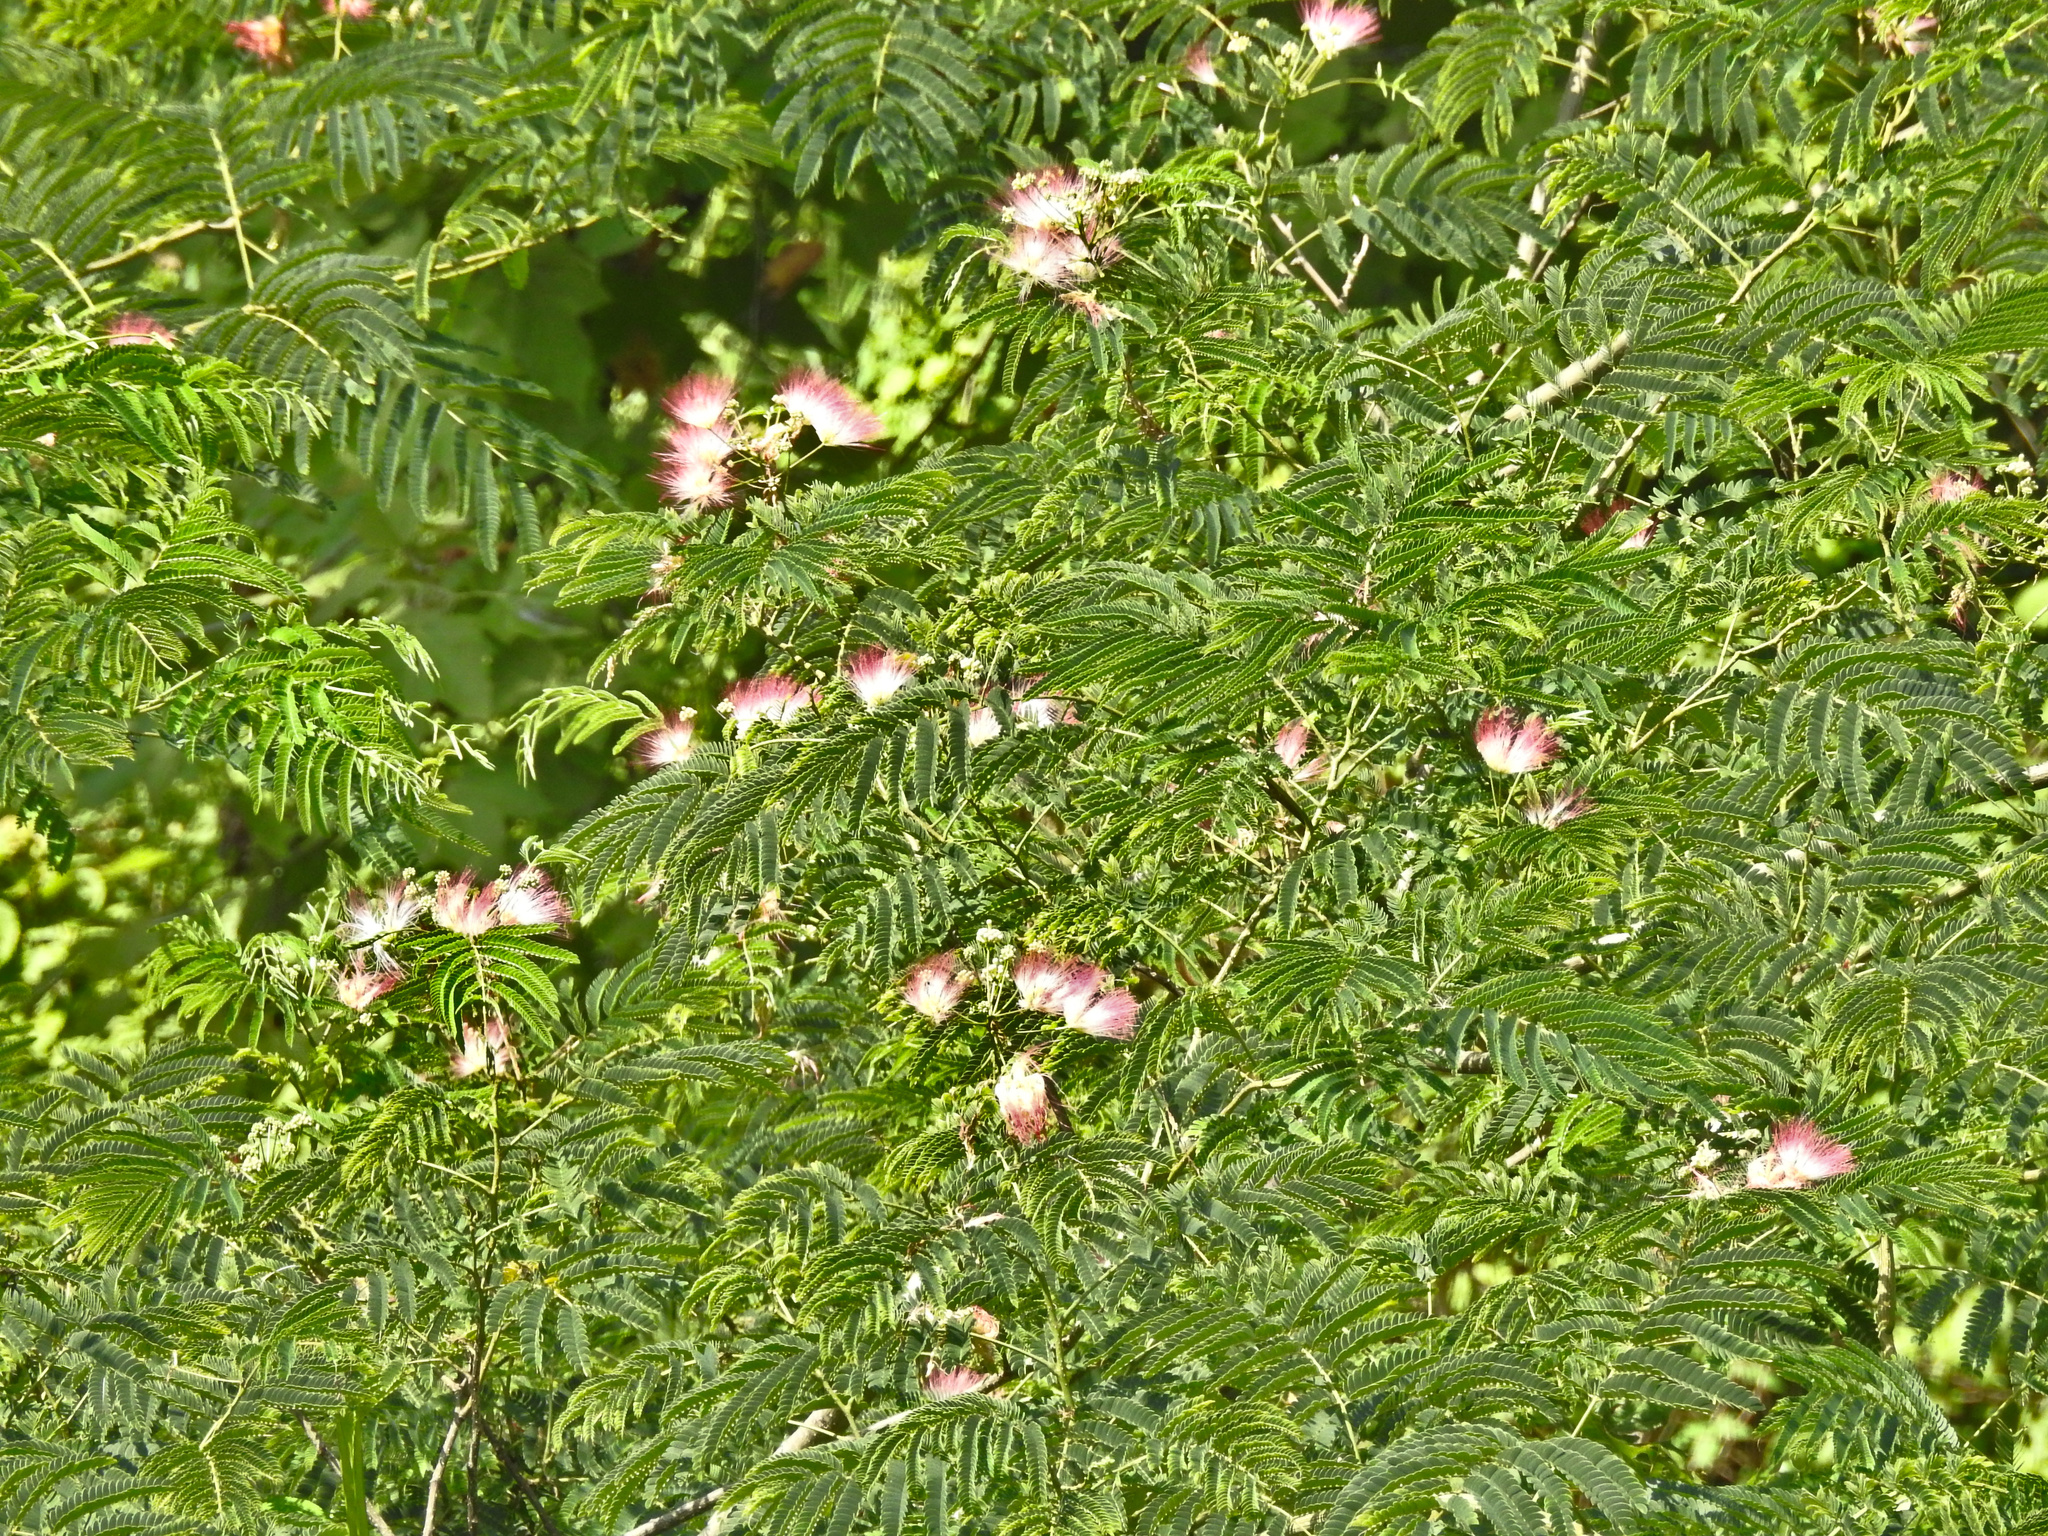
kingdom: Plantae
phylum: Tracheophyta
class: Magnoliopsida
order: Fabales
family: Fabaceae
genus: Albizia
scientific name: Albizia julibrissin
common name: Silktree
